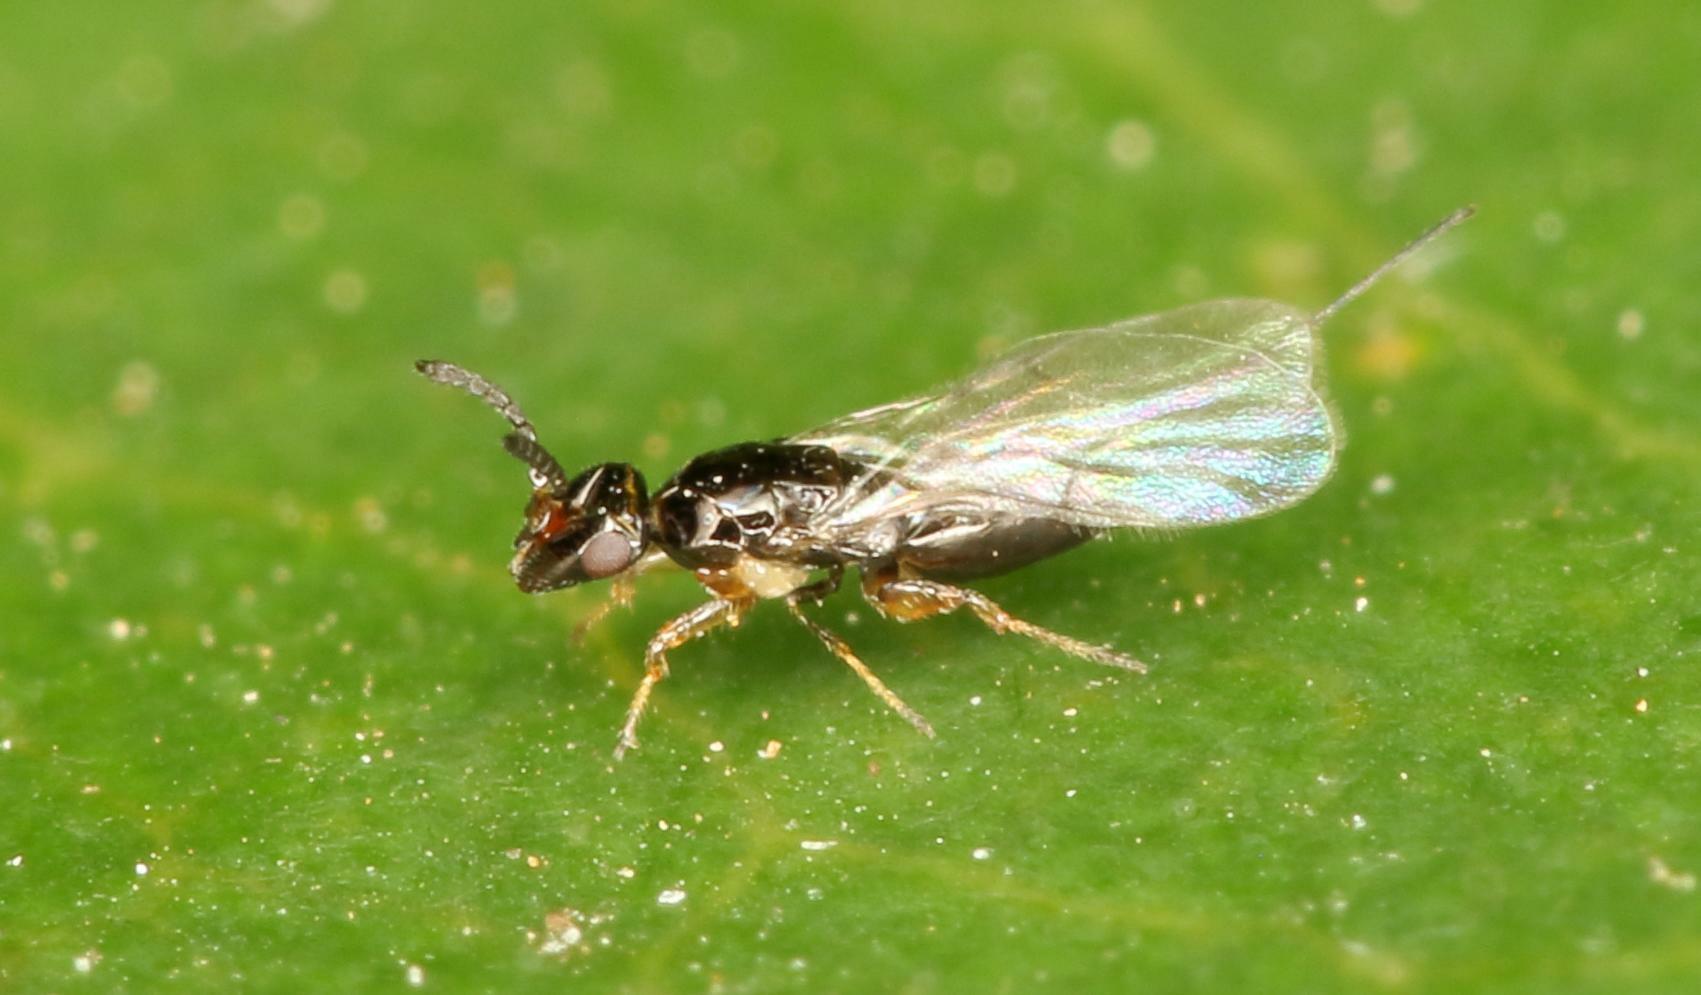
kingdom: Animalia
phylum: Arthropoda
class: Insecta
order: Hymenoptera
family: Agaonidae
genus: Elisabethiella
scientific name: Elisabethiella stueckenbergi
